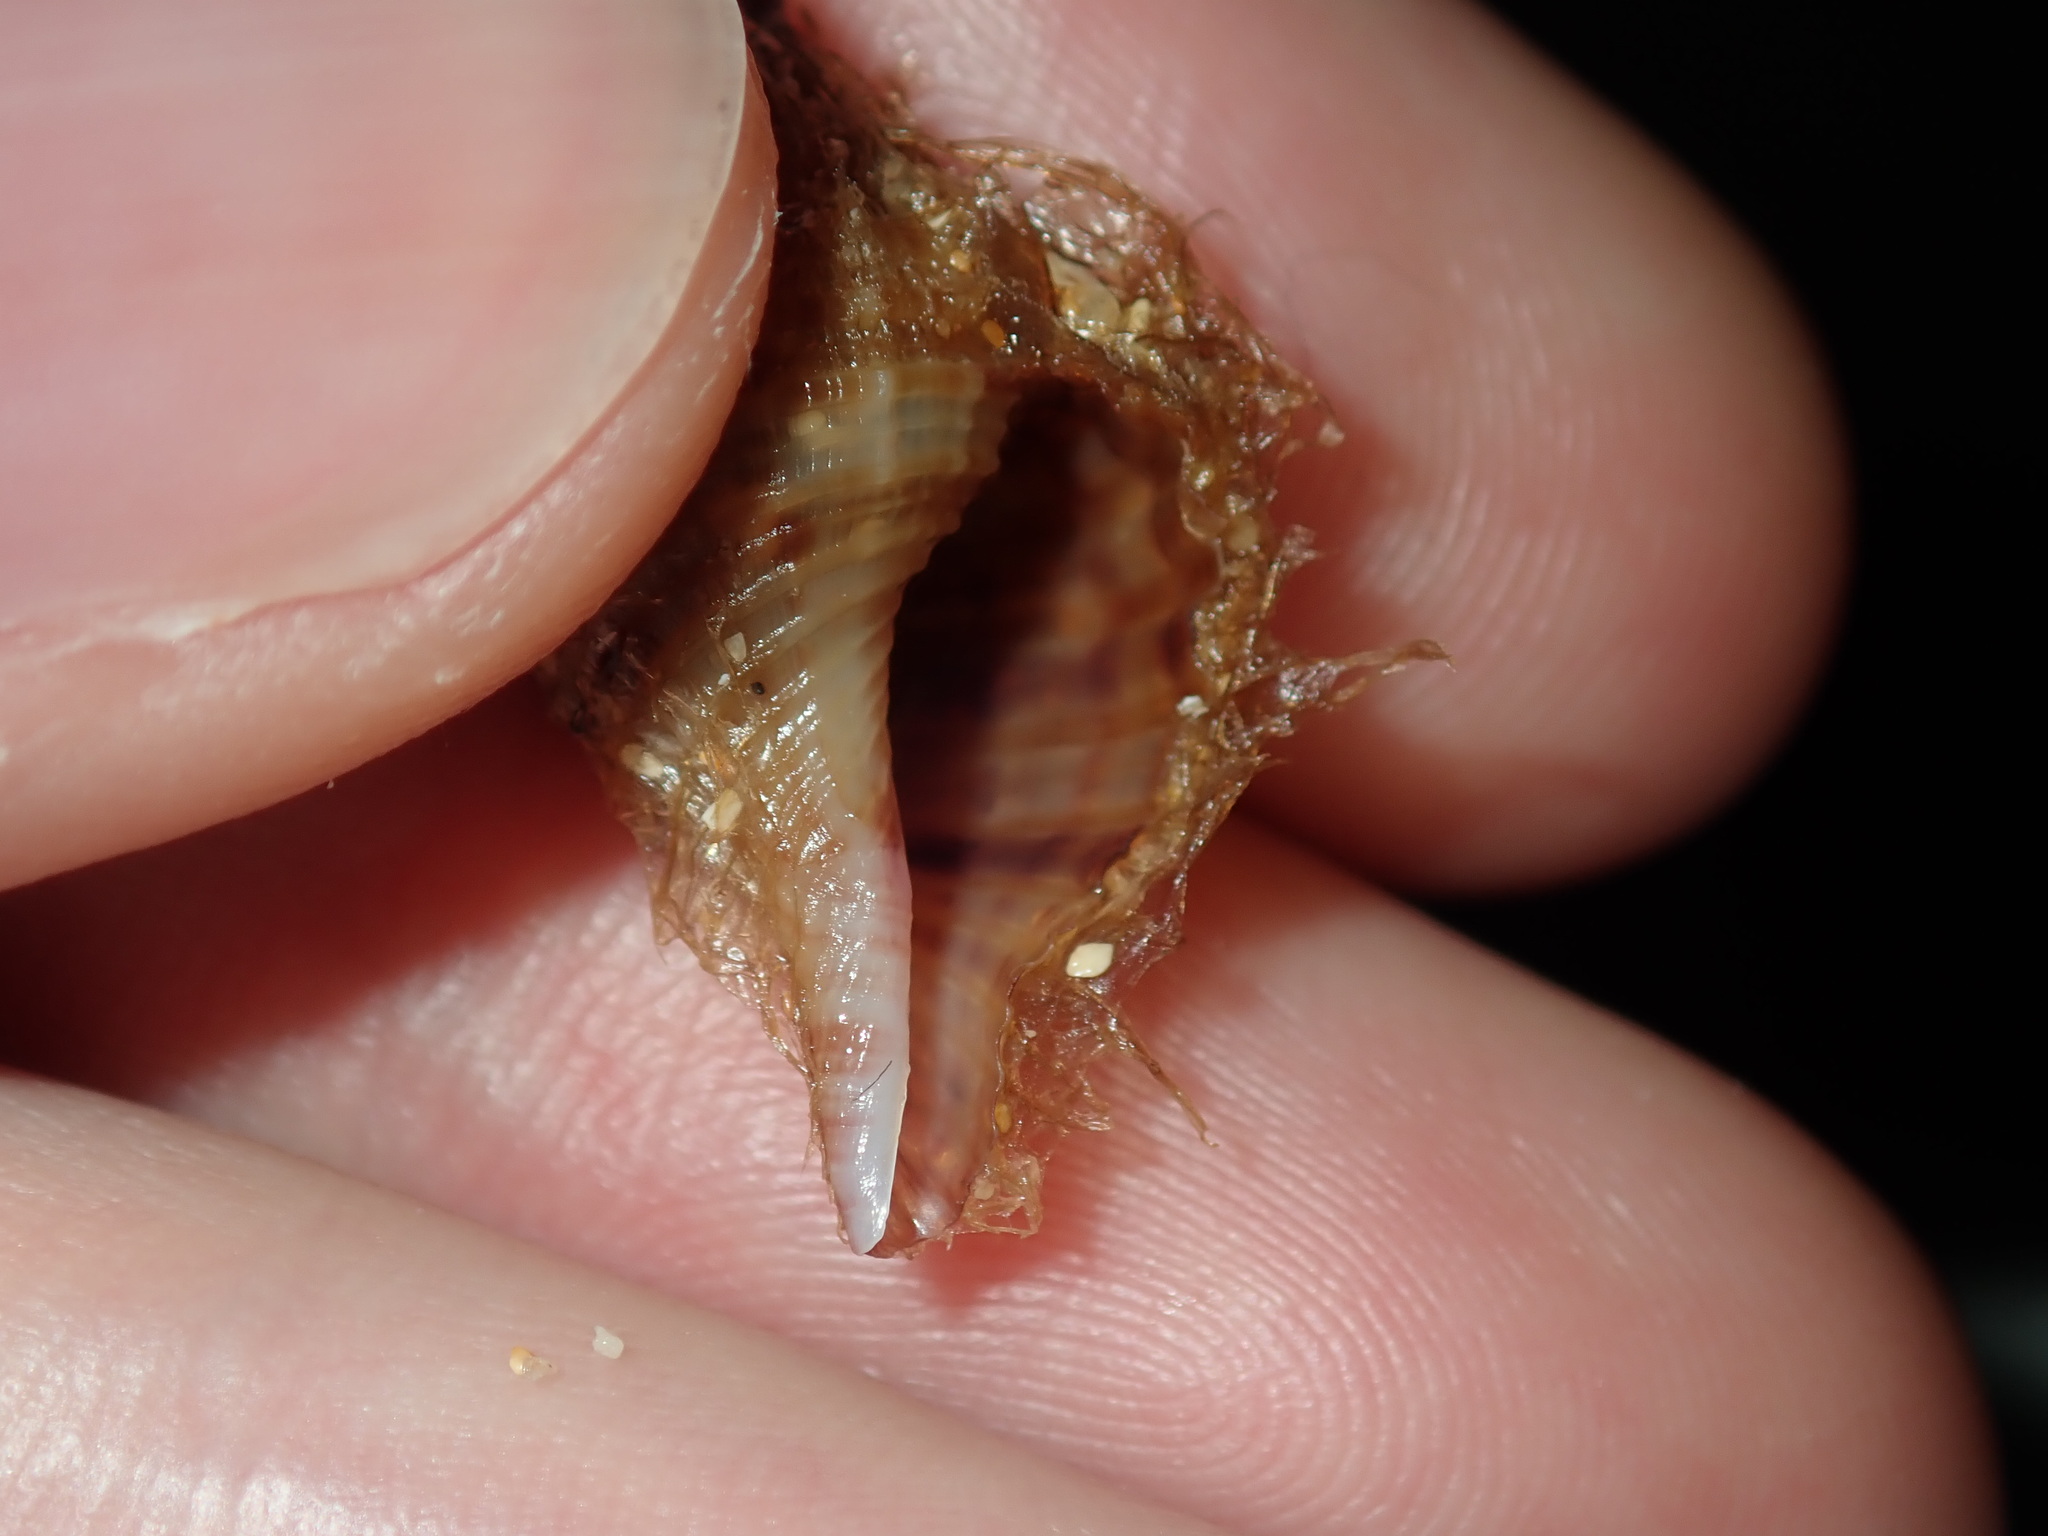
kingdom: Animalia
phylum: Mollusca
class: Gastropoda
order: Littorinimorpha
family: Cymatiidae
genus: Monoplex
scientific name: Monoplex parthenopeus
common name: Giant triton
